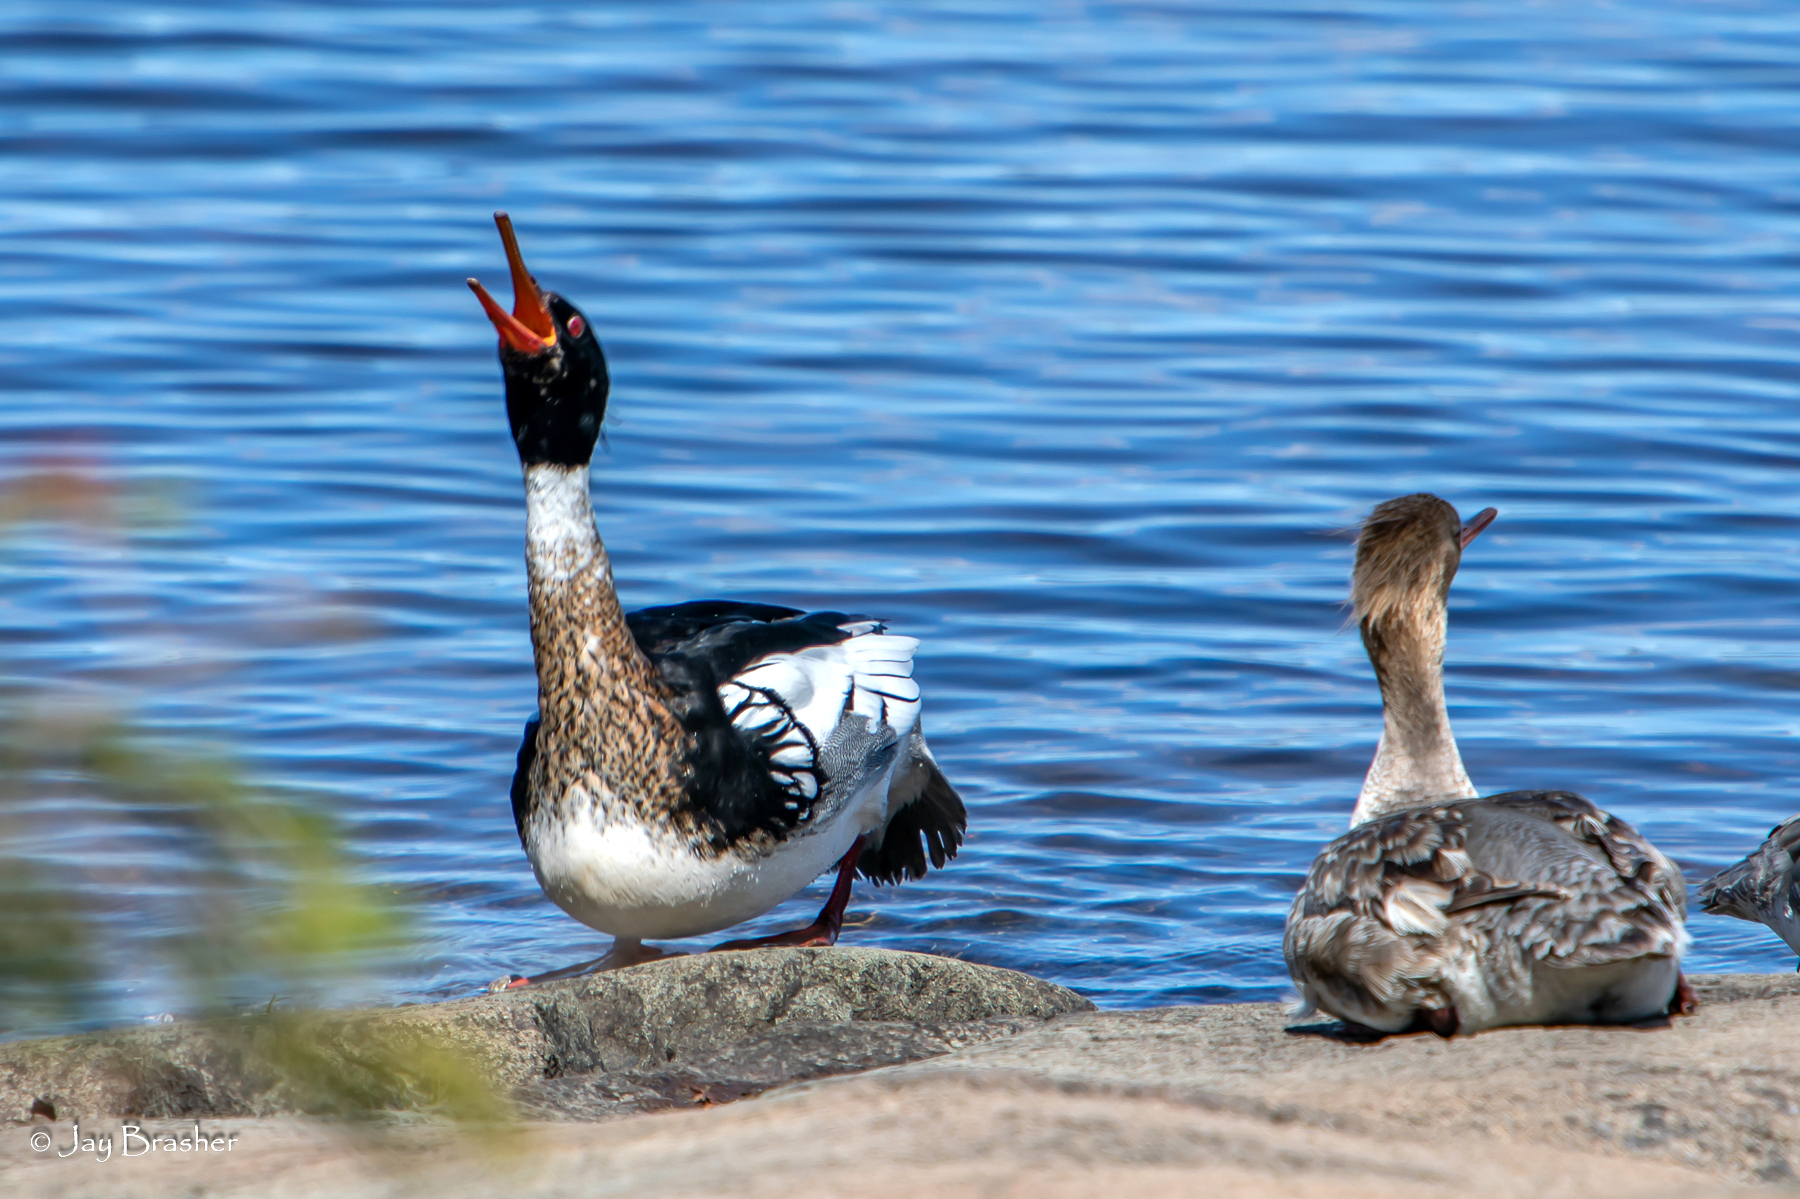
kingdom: Animalia
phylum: Chordata
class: Aves
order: Anseriformes
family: Anatidae
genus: Mergus
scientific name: Mergus serrator
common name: Red-breasted merganser
